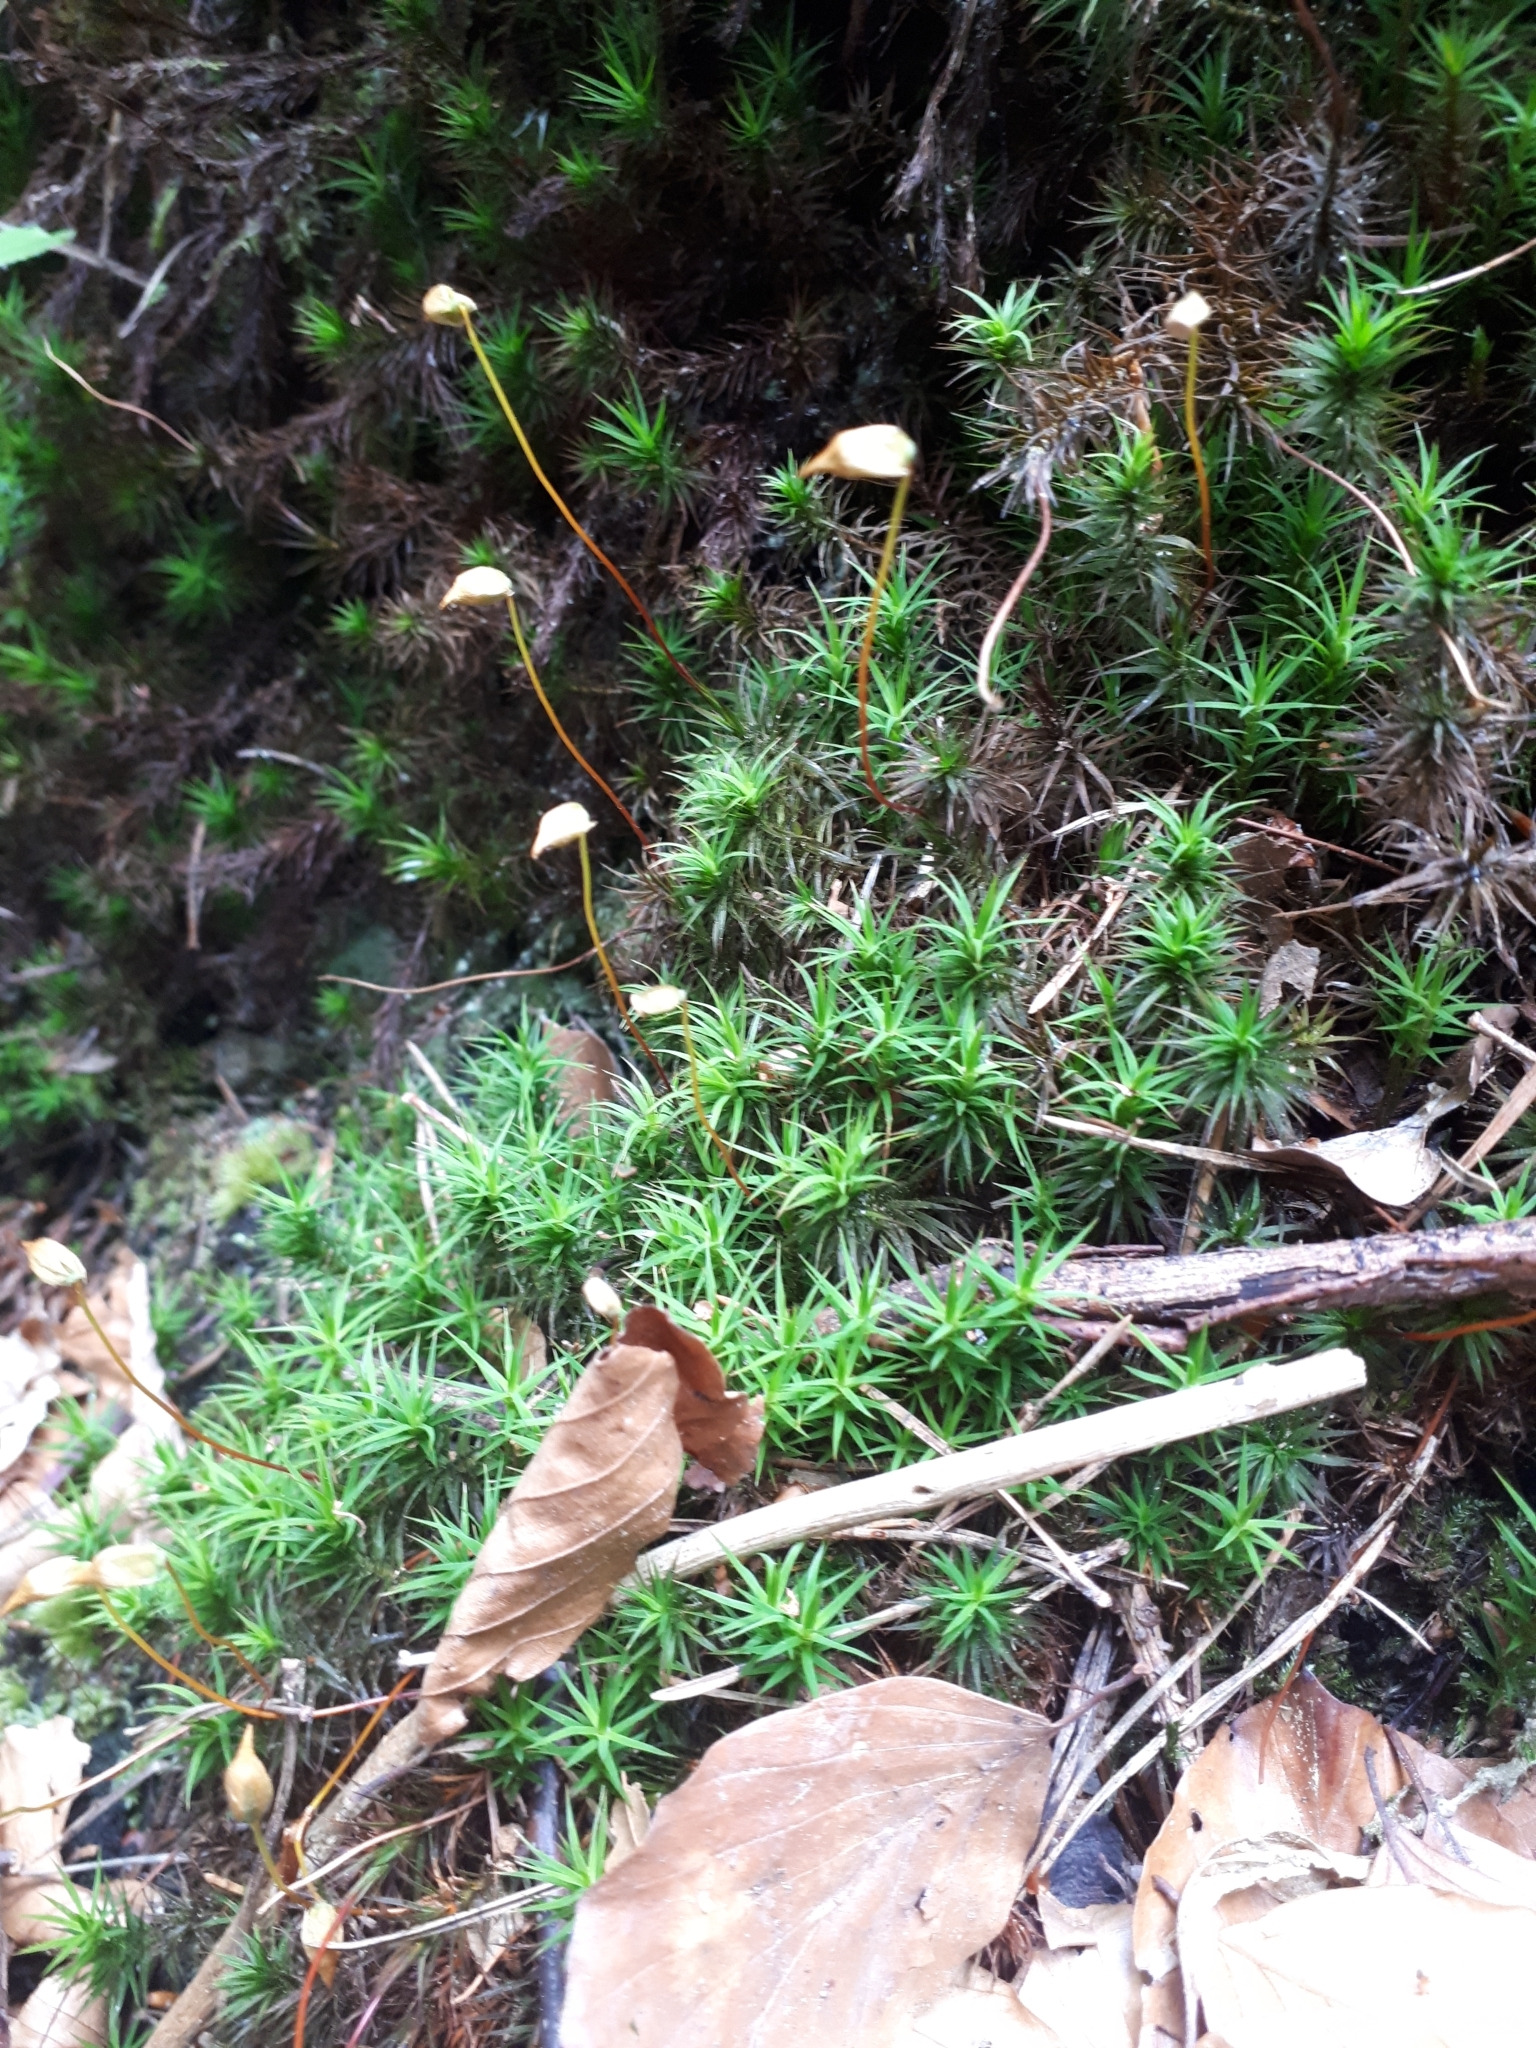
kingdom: Plantae
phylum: Bryophyta
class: Polytrichopsida
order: Polytrichales
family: Polytrichaceae
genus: Polytrichum
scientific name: Polytrichum formosum
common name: Bank haircap moss
